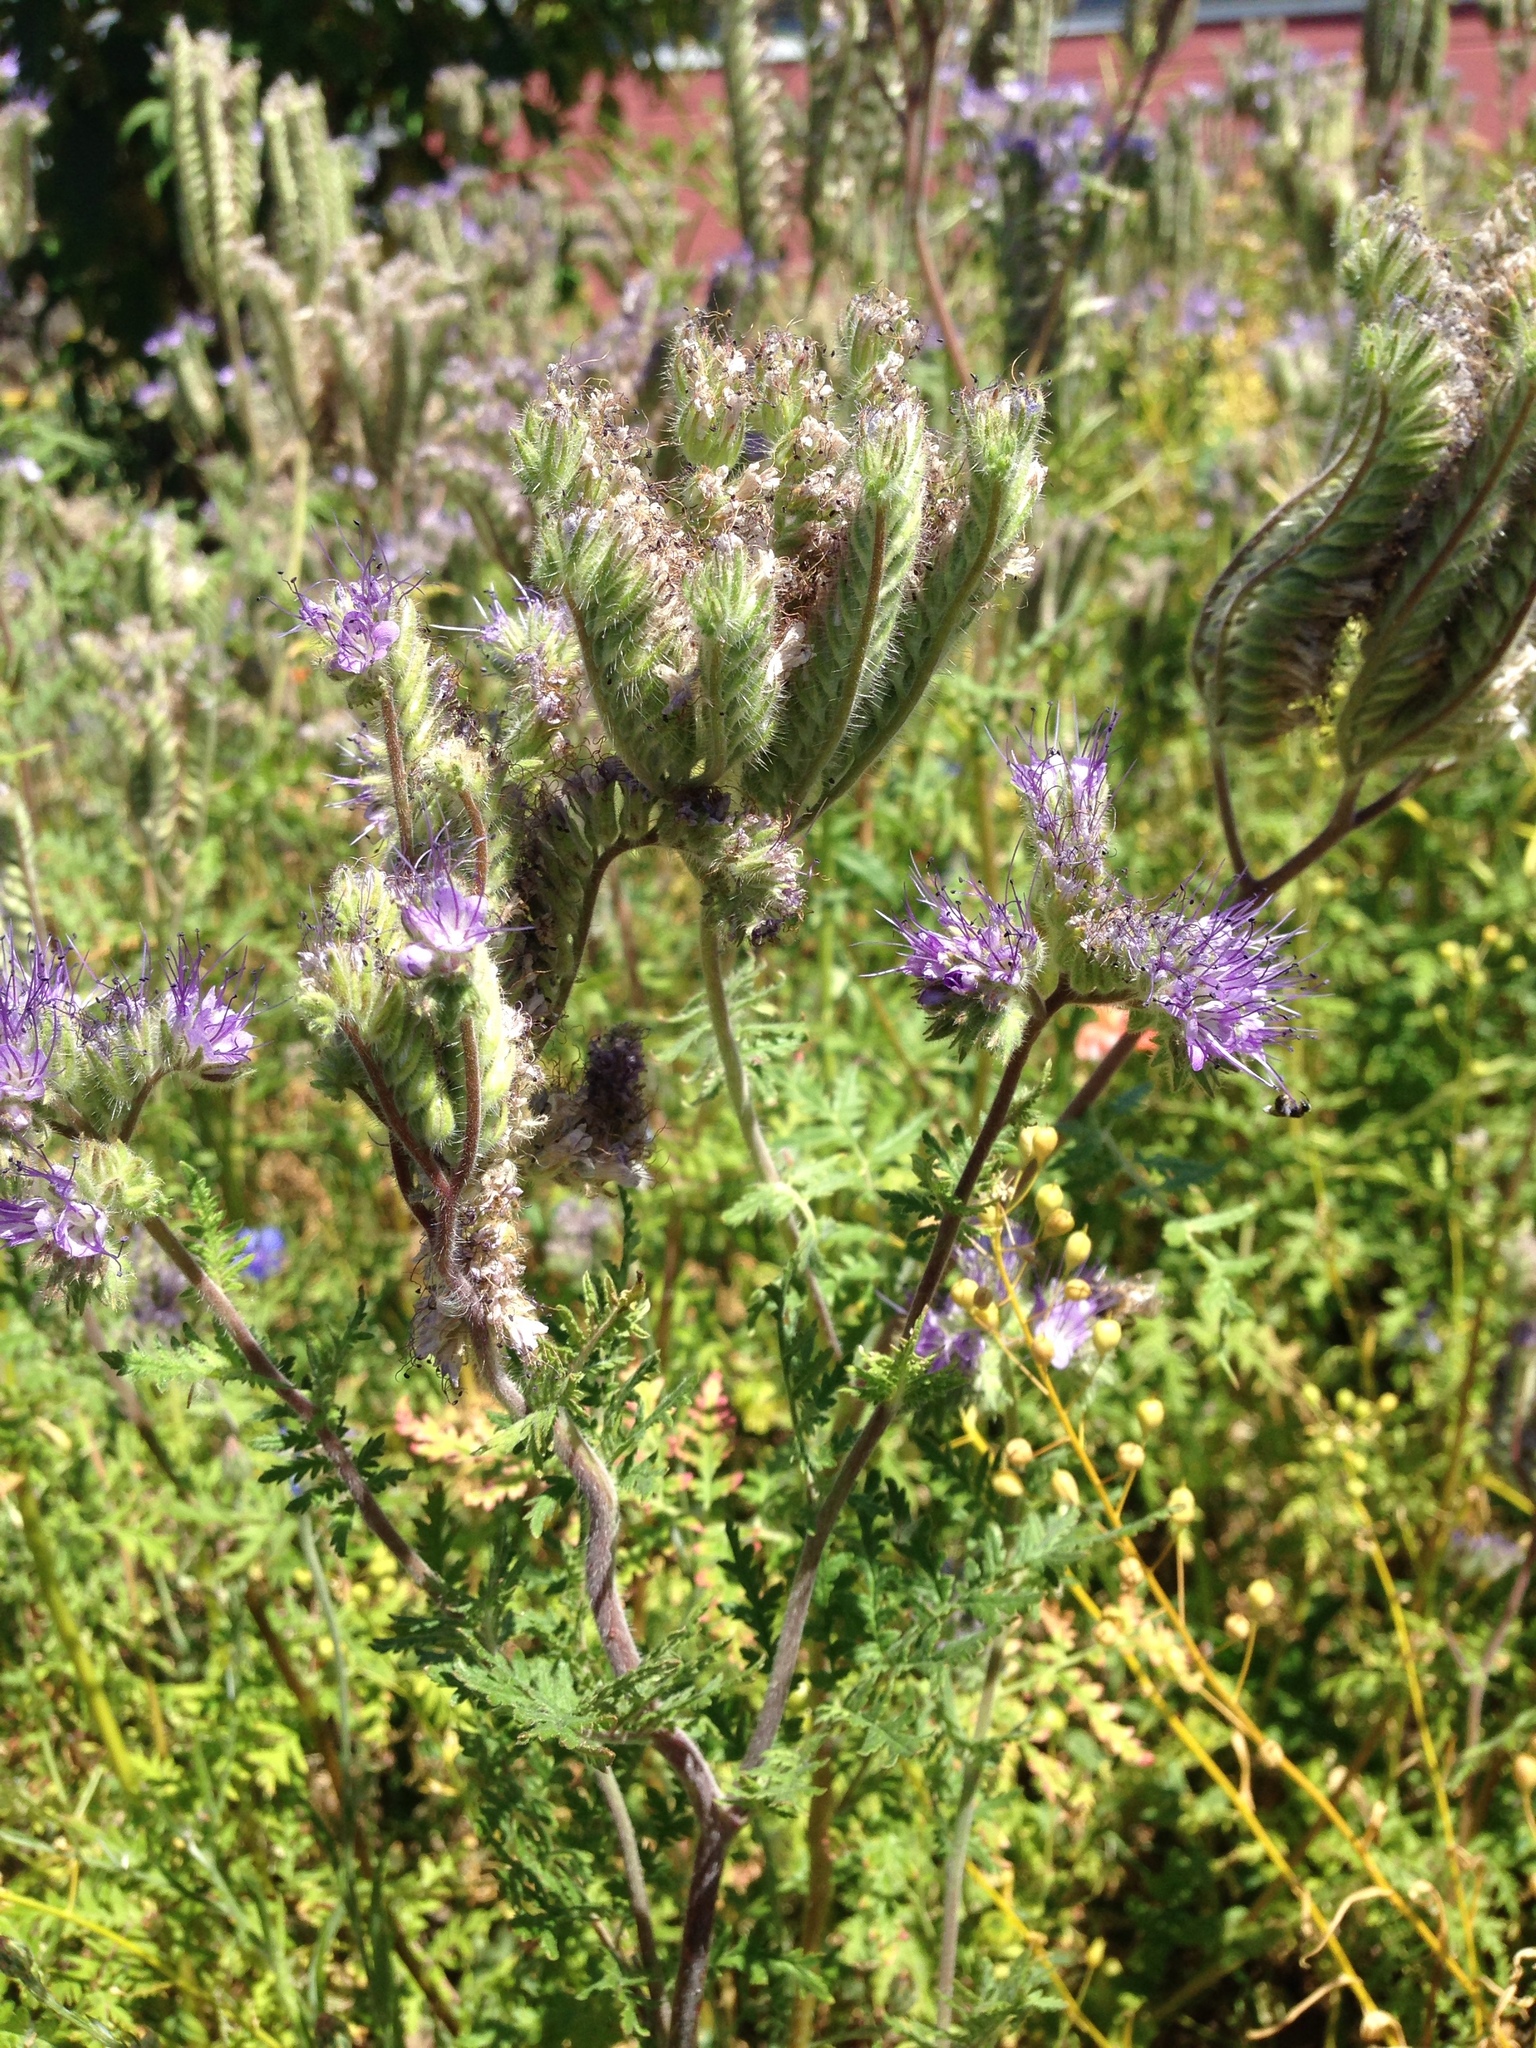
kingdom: Plantae
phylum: Tracheophyta
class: Magnoliopsida
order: Boraginales
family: Hydrophyllaceae
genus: Phacelia
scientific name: Phacelia tanacetifolia
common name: Phacelia
